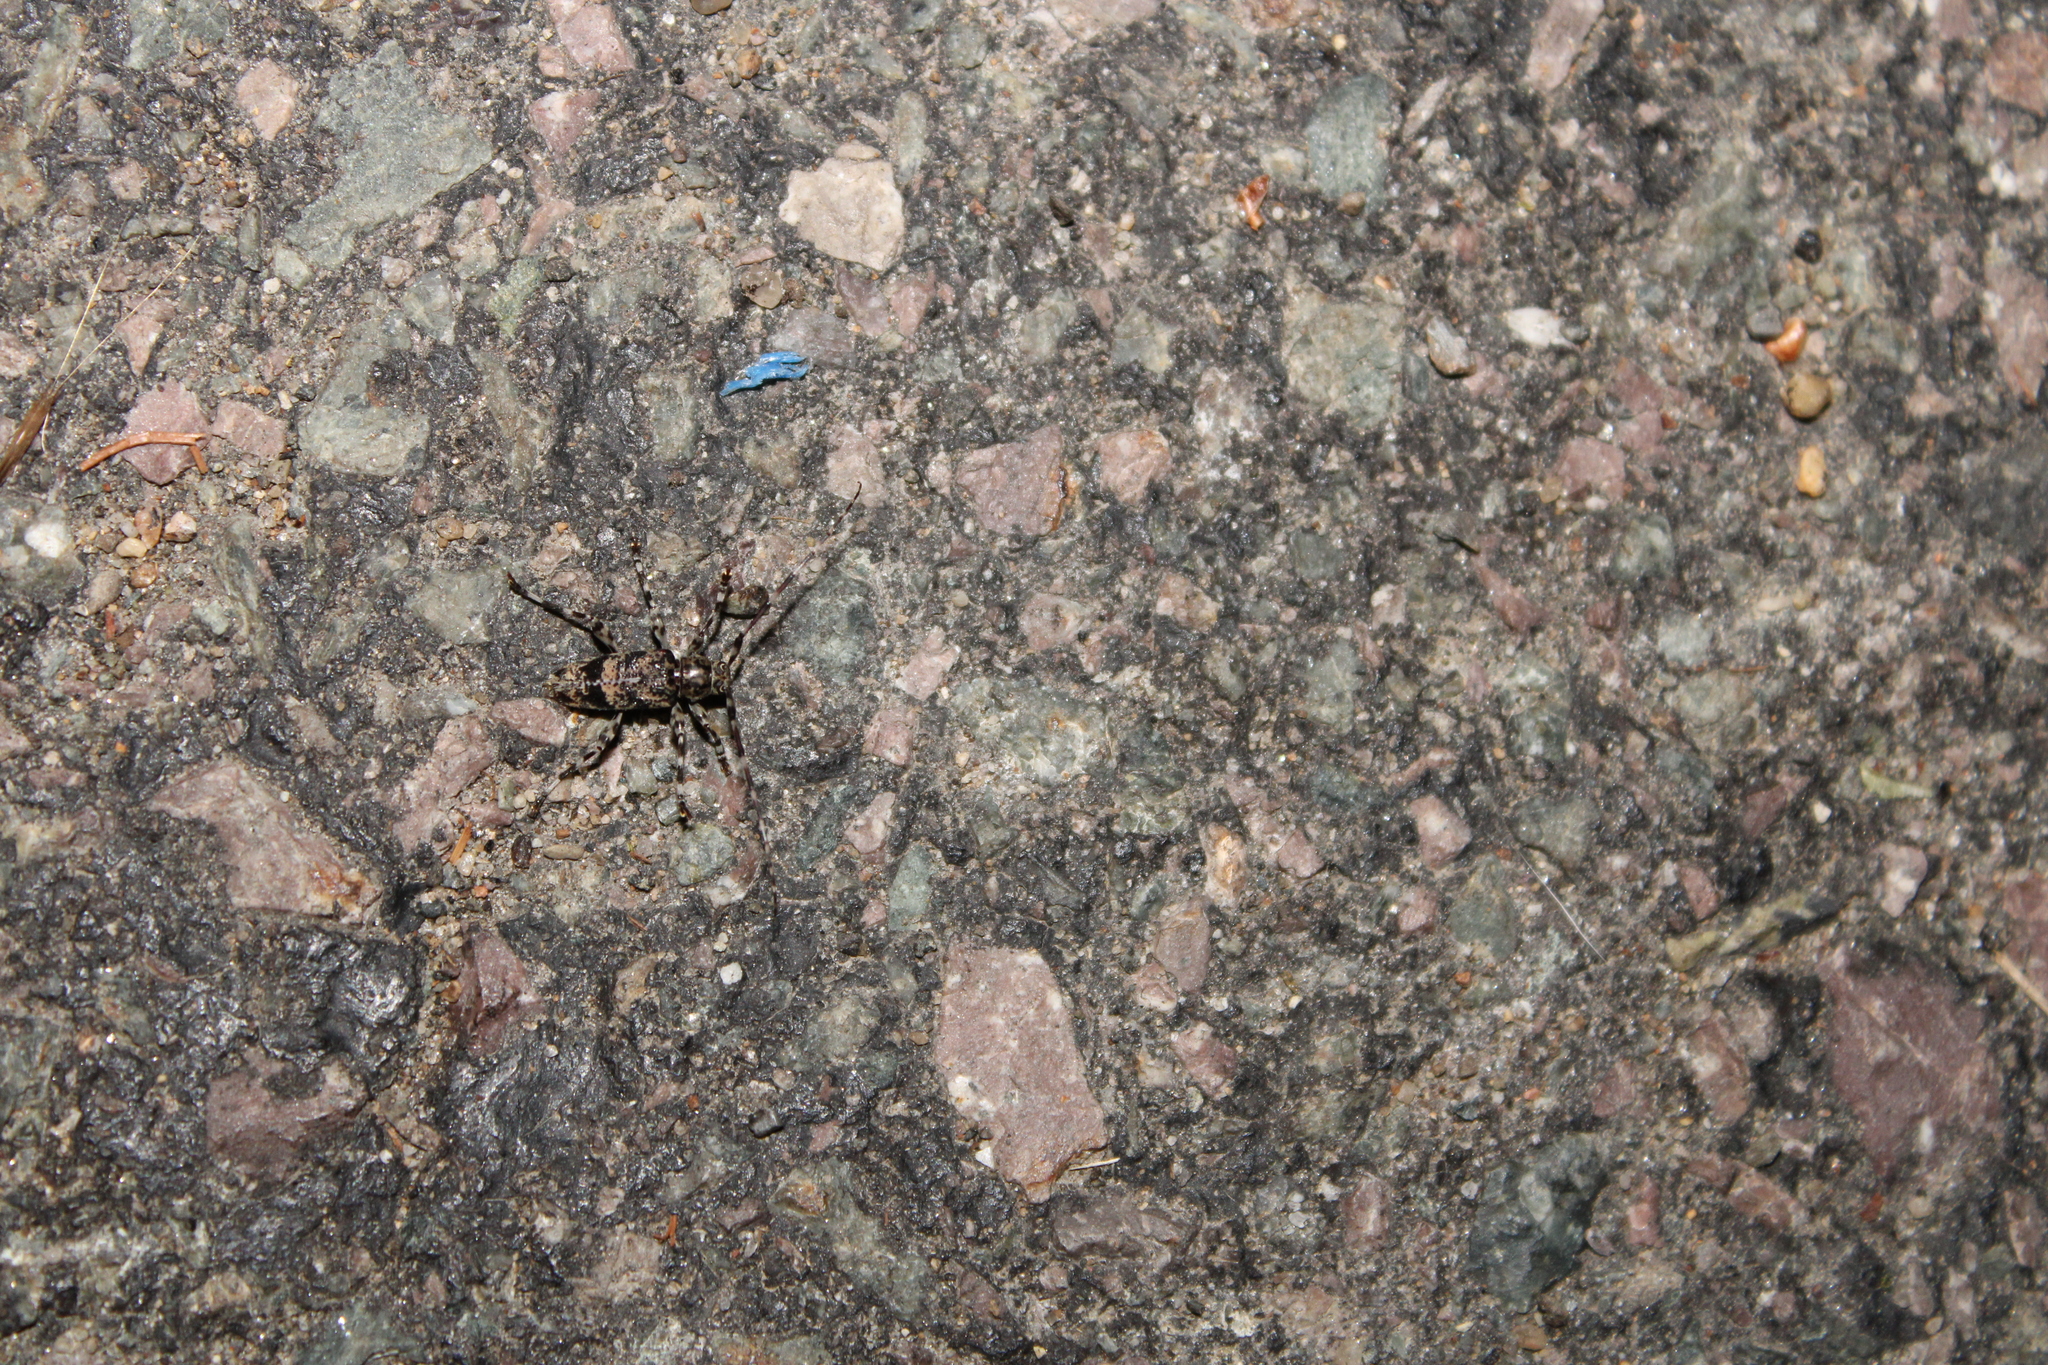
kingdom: Animalia
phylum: Arthropoda
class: Insecta
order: Coleoptera
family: Cerambycidae
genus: Graphisurus
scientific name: Graphisurus fasciatus
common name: Banded graphisurus
